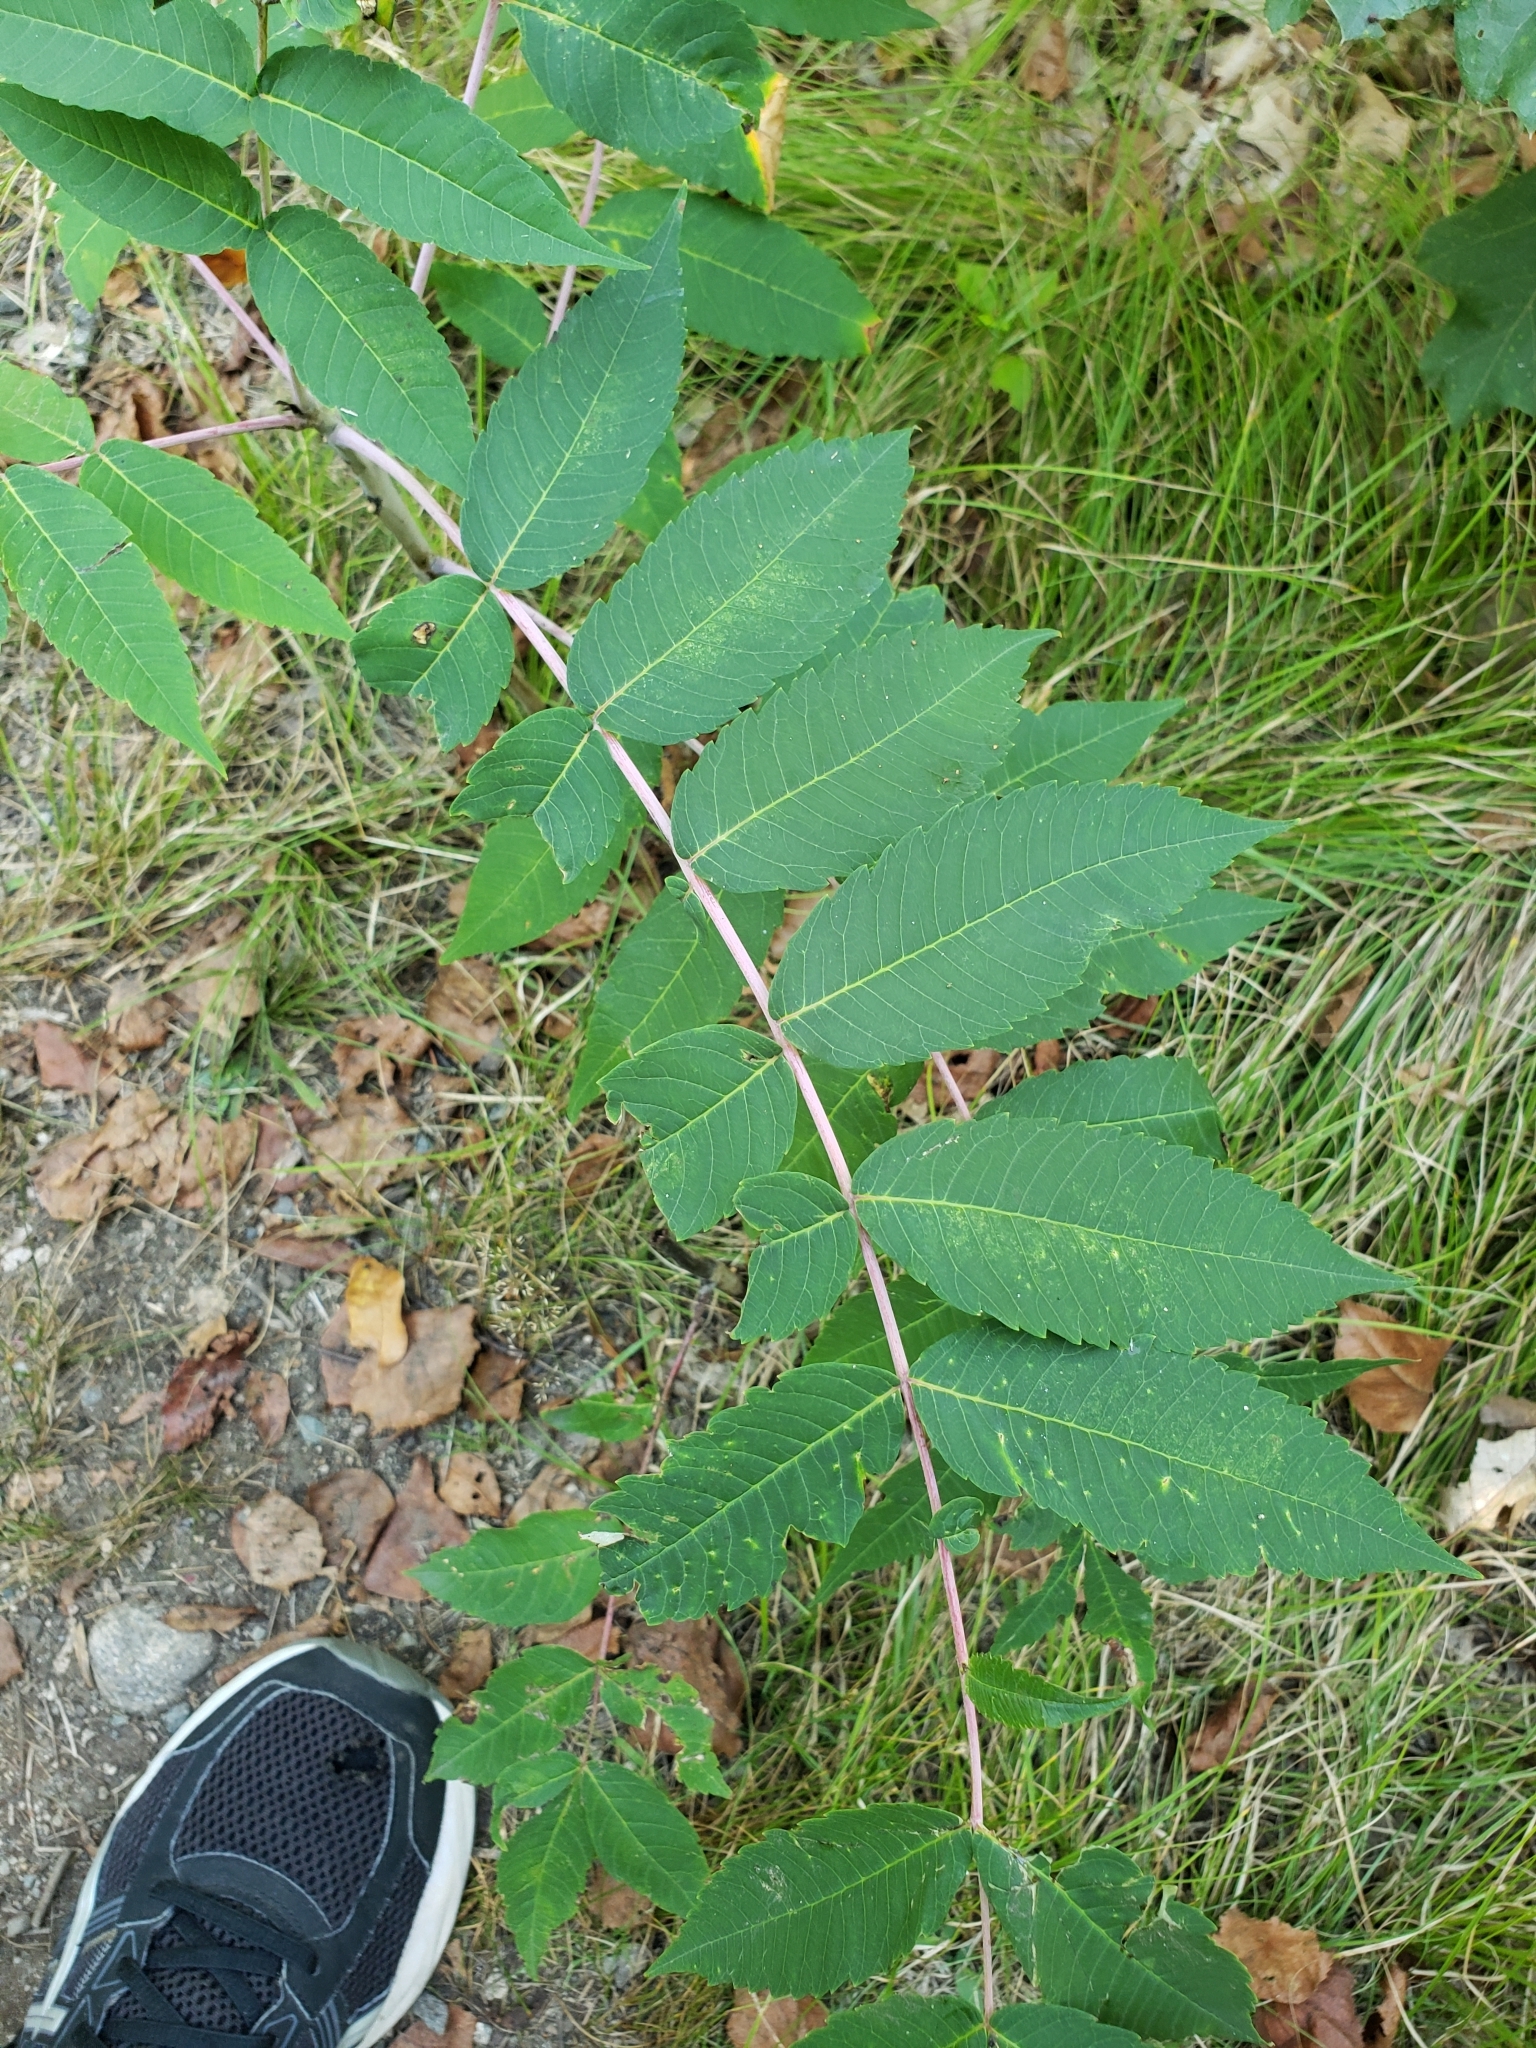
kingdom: Plantae
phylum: Tracheophyta
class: Magnoliopsida
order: Sapindales
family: Anacardiaceae
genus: Rhus
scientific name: Rhus glabra
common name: Scarlet sumac
